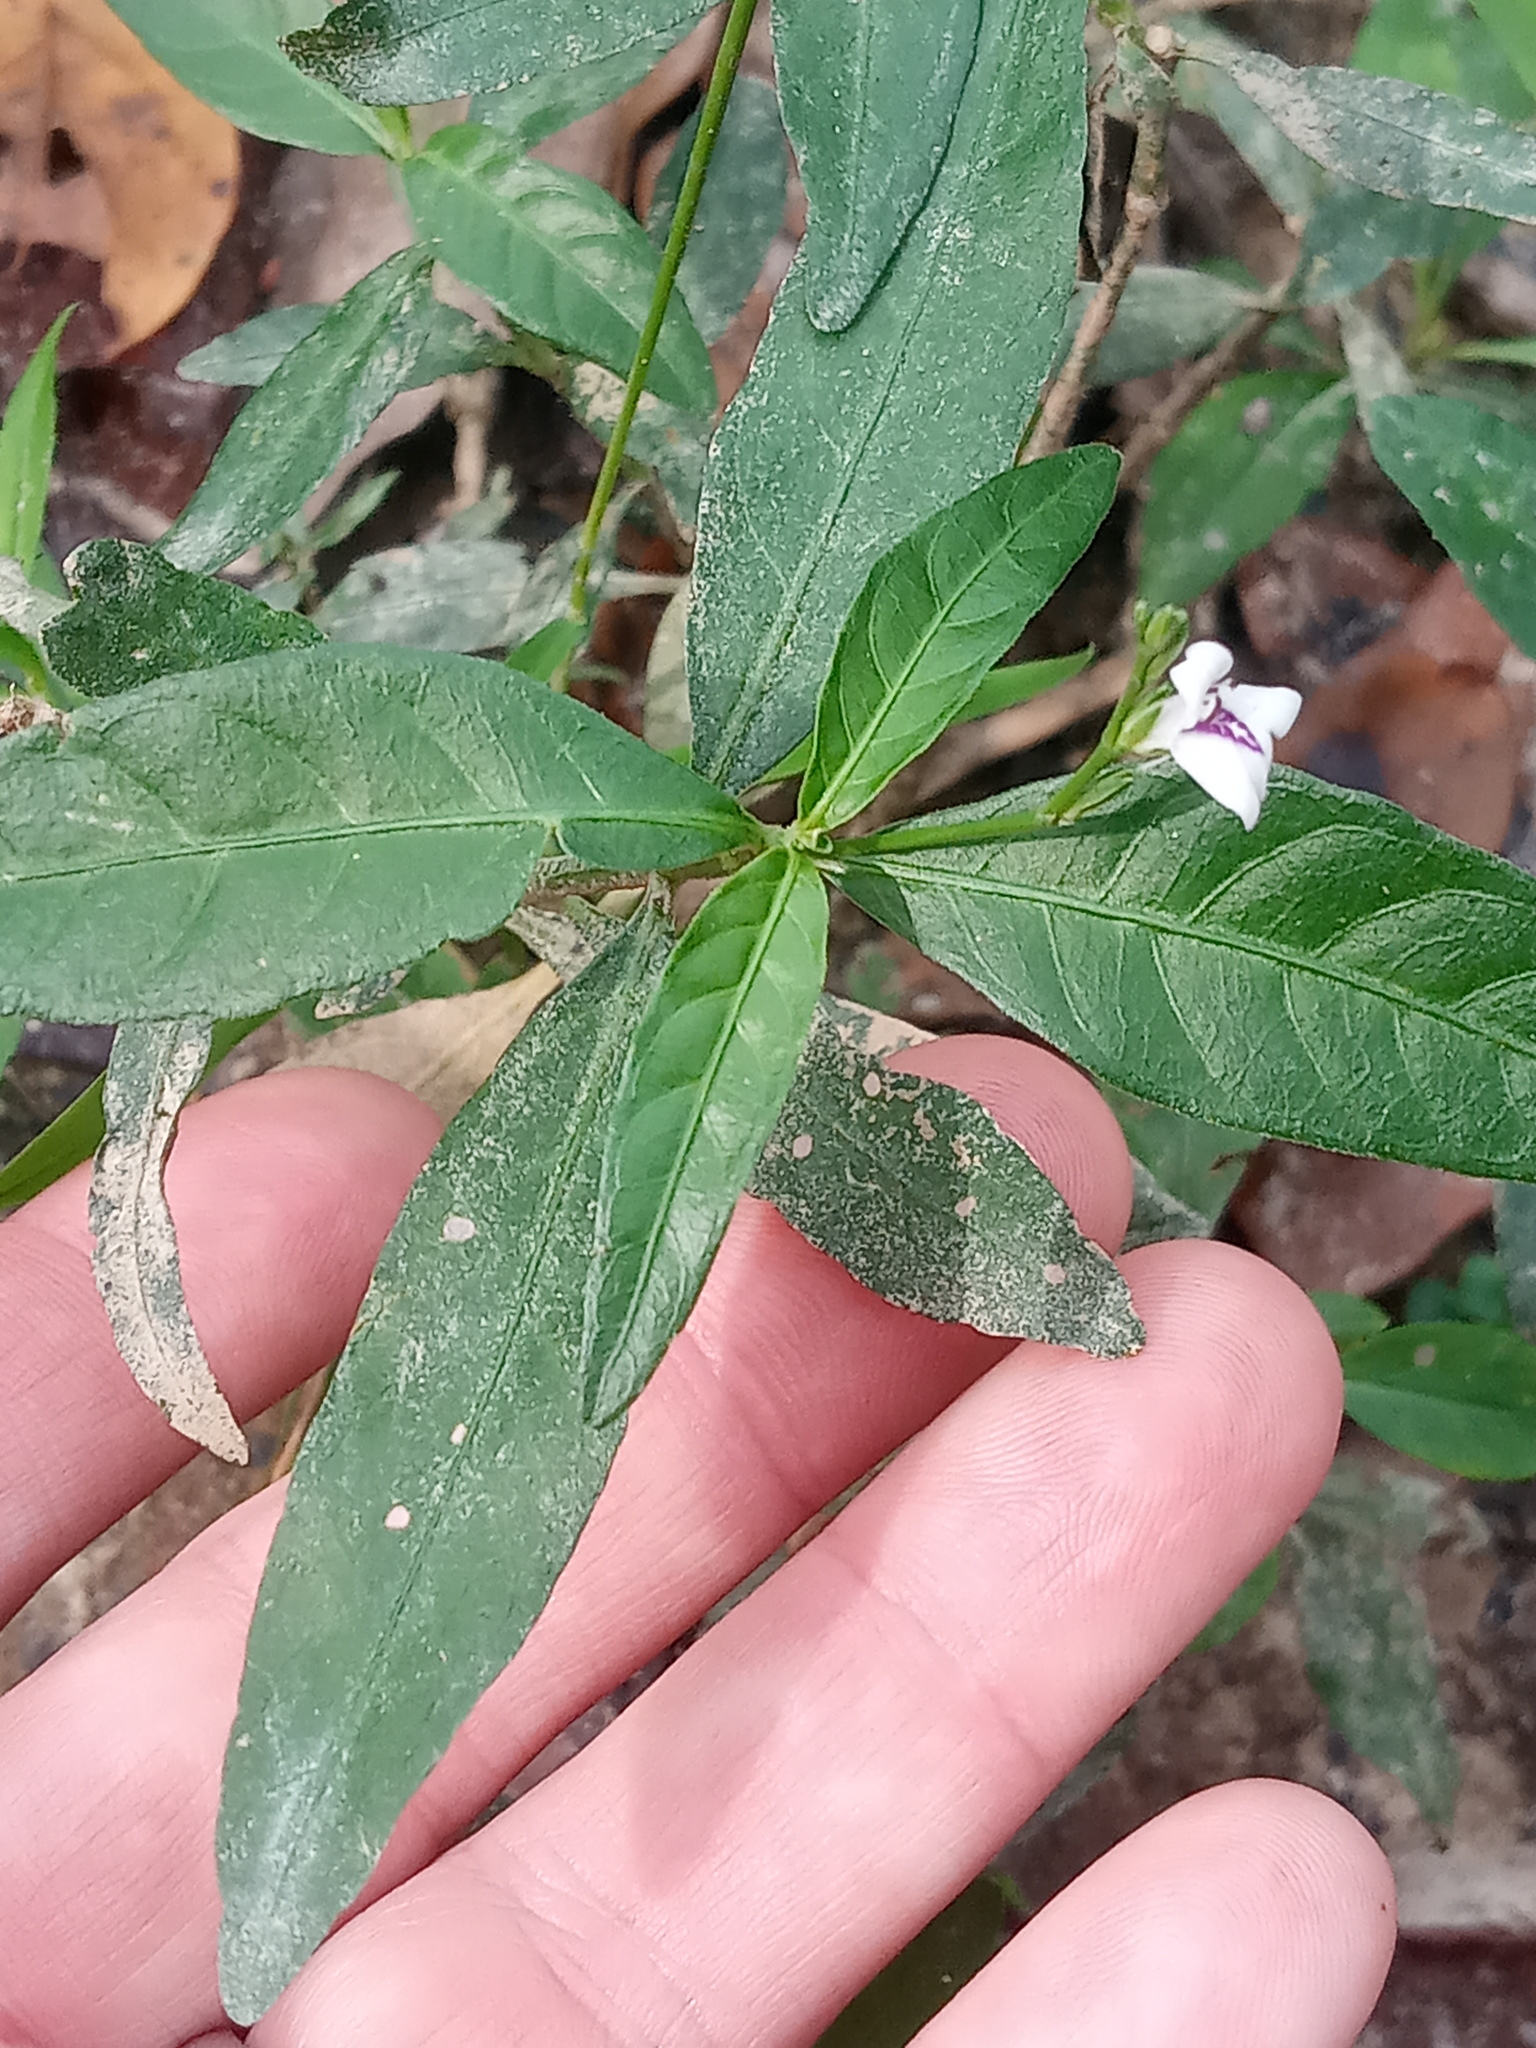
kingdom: Plantae
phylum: Tracheophyta
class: Magnoliopsida
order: Lamiales
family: Acanthaceae
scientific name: Acanthaceae
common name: Acanthaceae
